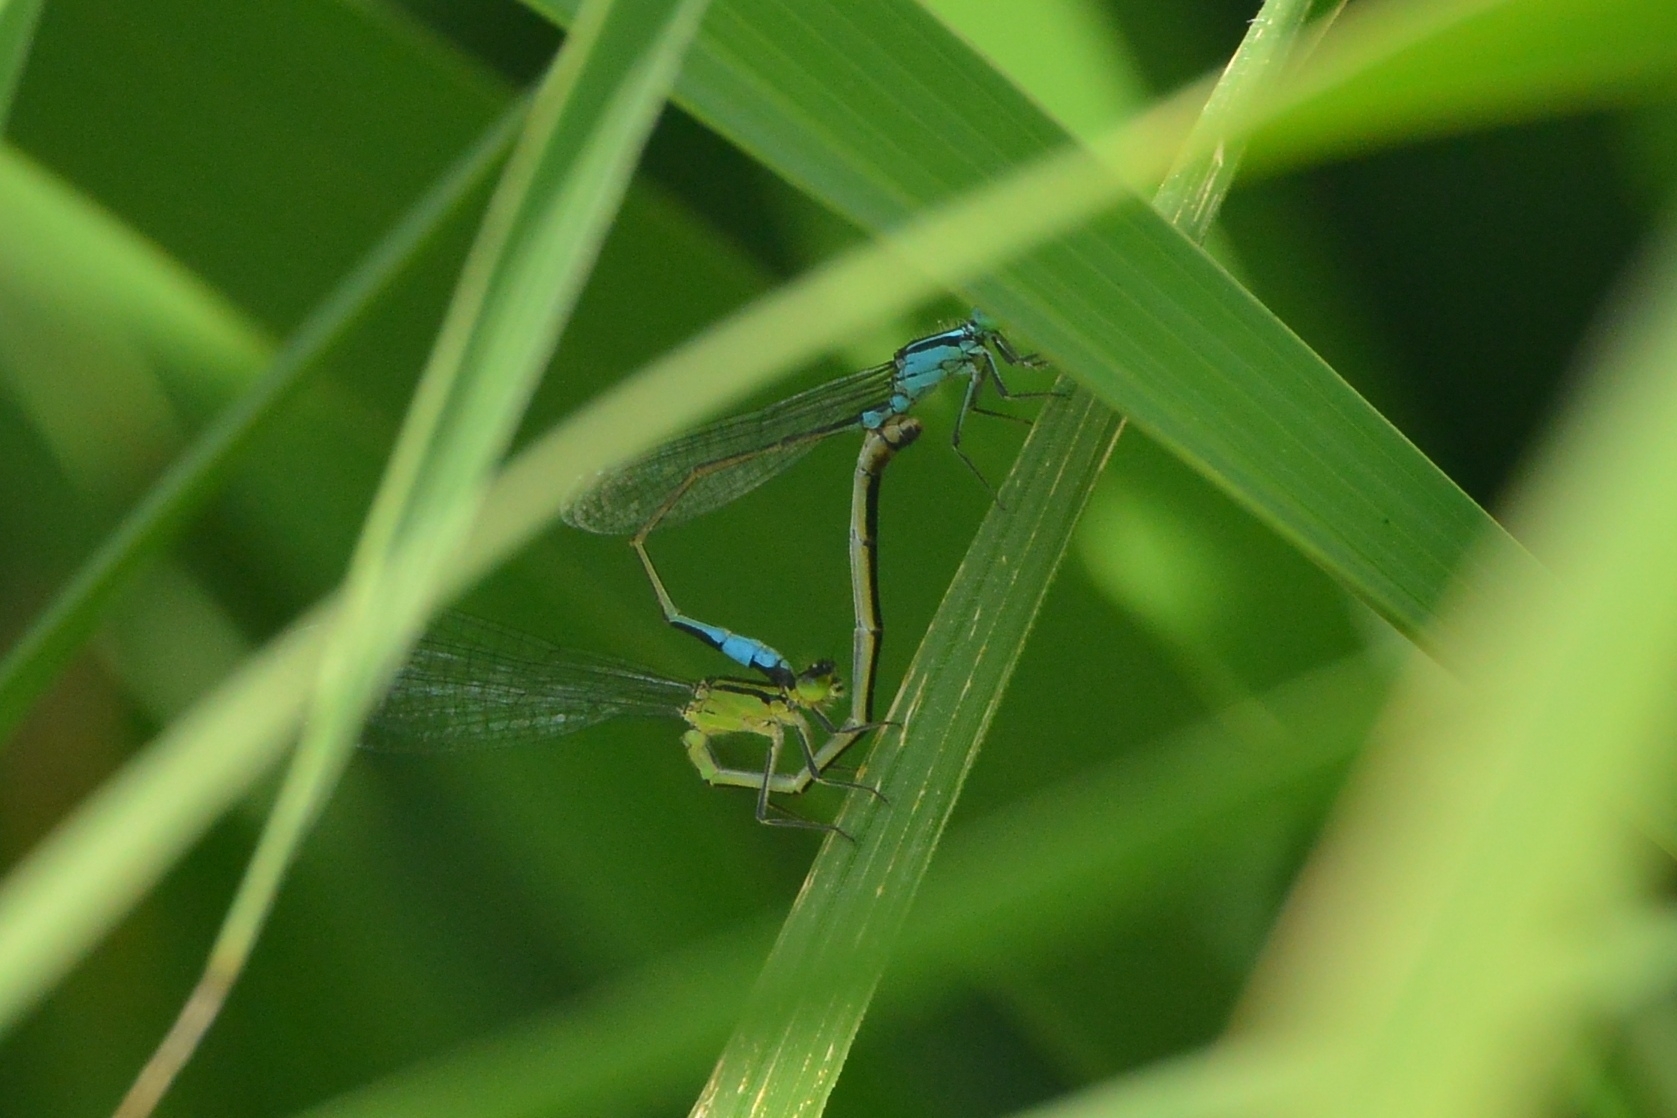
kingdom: Animalia
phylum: Arthropoda
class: Insecta
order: Odonata
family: Coenagrionidae
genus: Ischnura
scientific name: Ischnura elegans
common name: Blue-tailed damselfly
